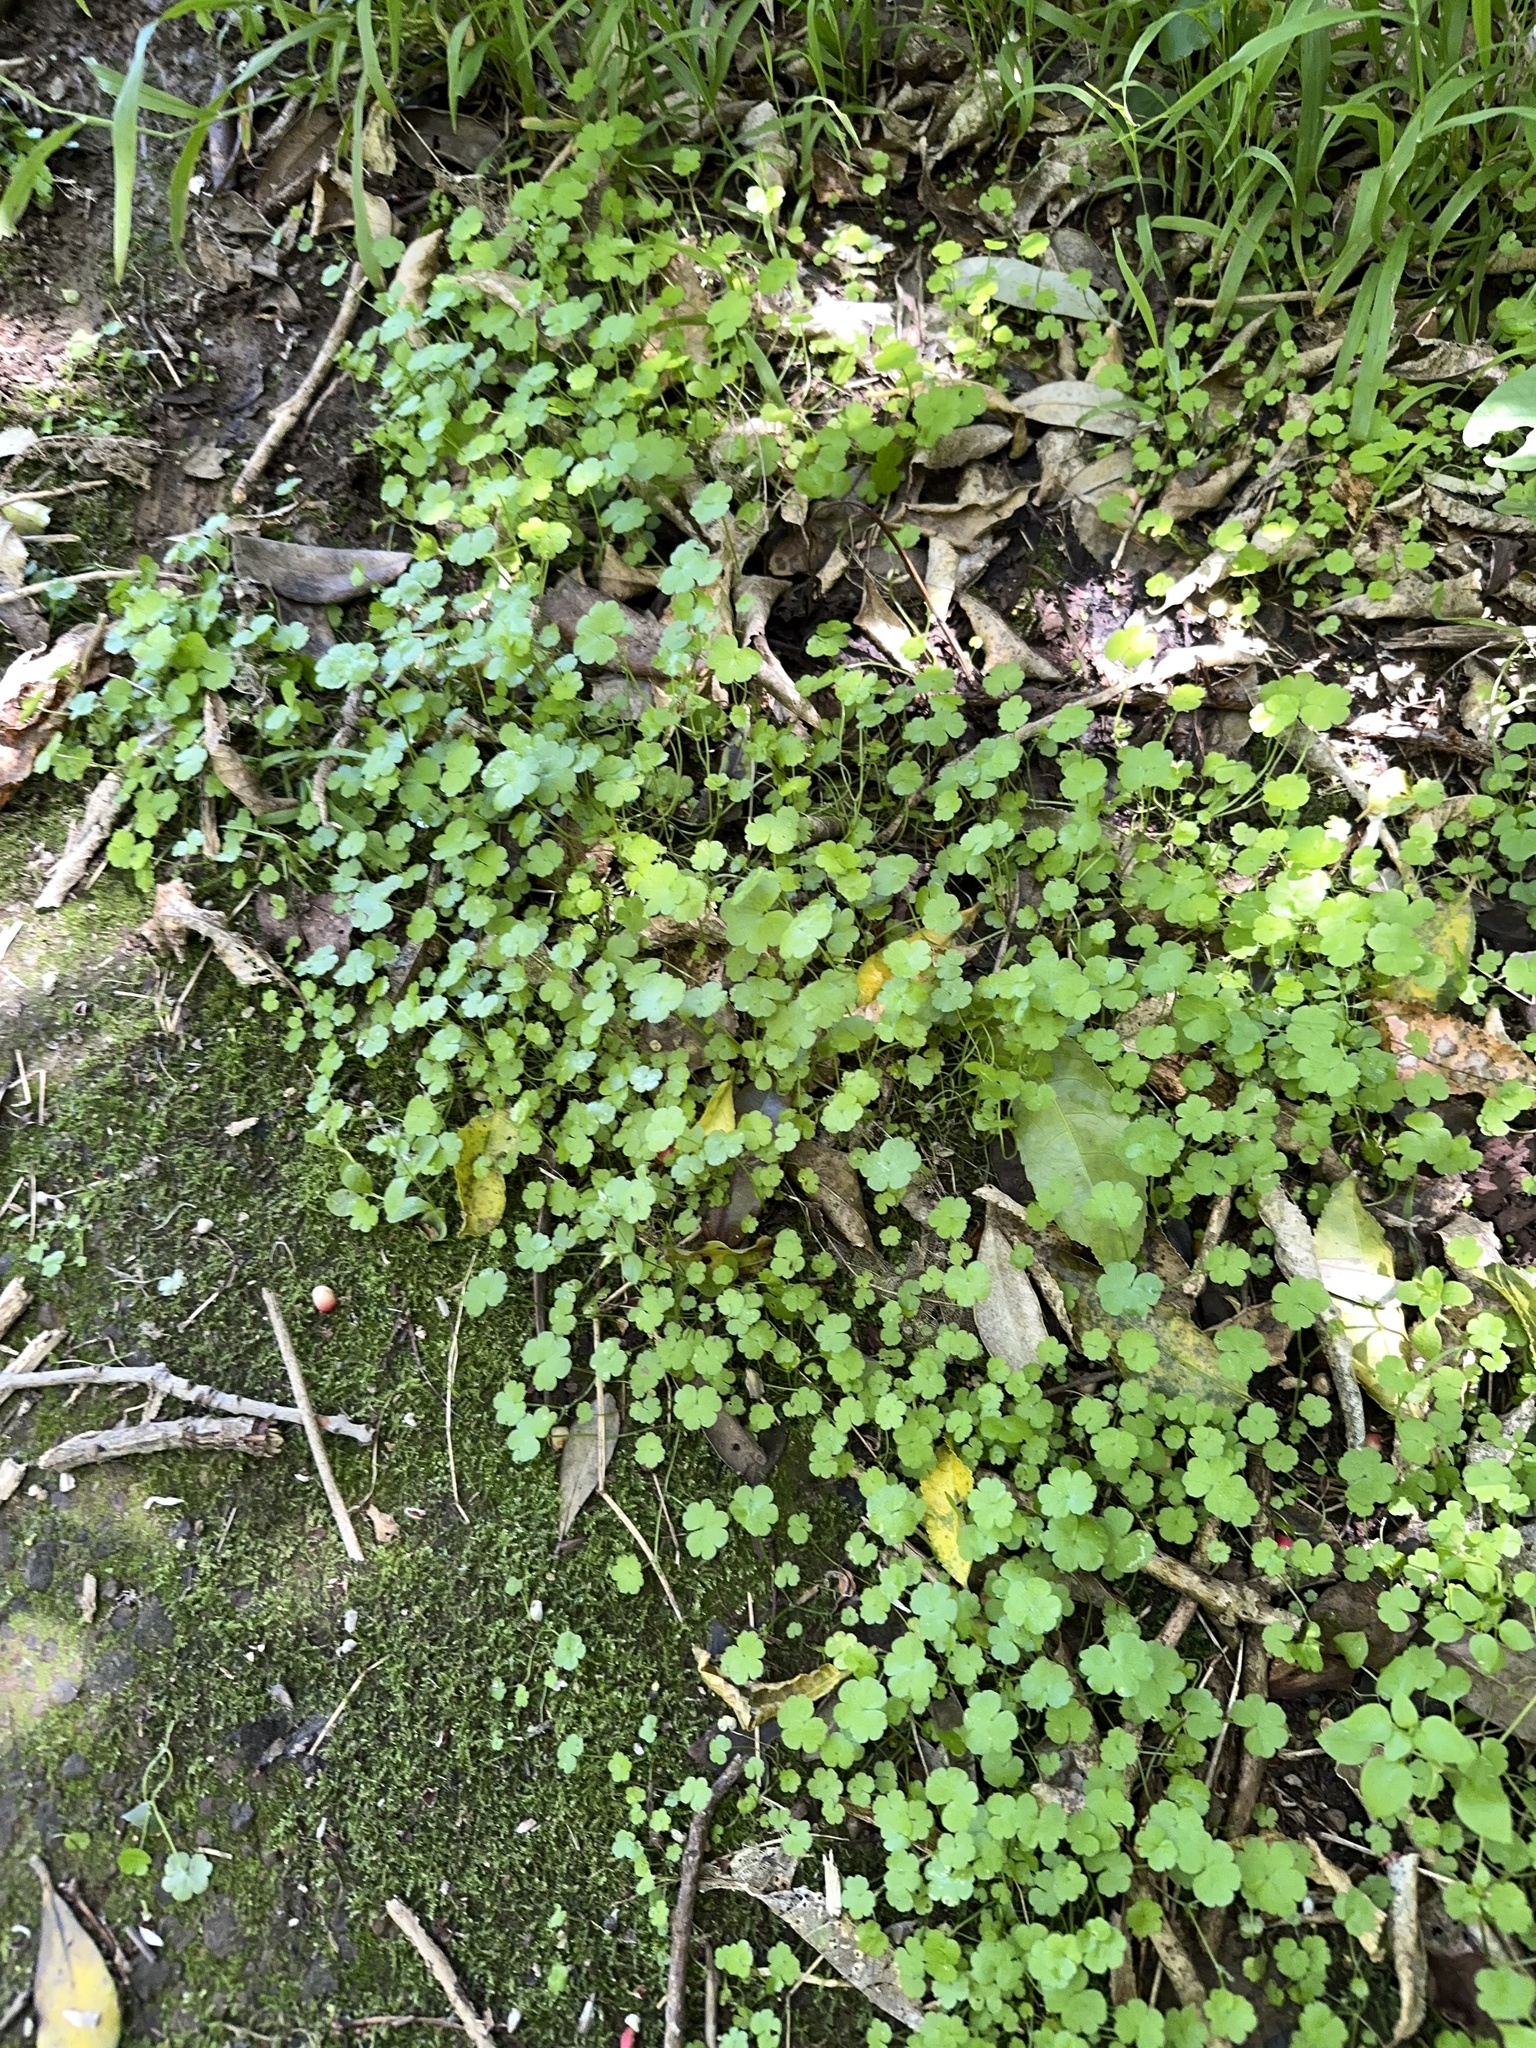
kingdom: Plantae
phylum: Tracheophyta
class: Magnoliopsida
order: Apiales
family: Araliaceae
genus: Hydrocotyle
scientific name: Hydrocotyle heteromeria
